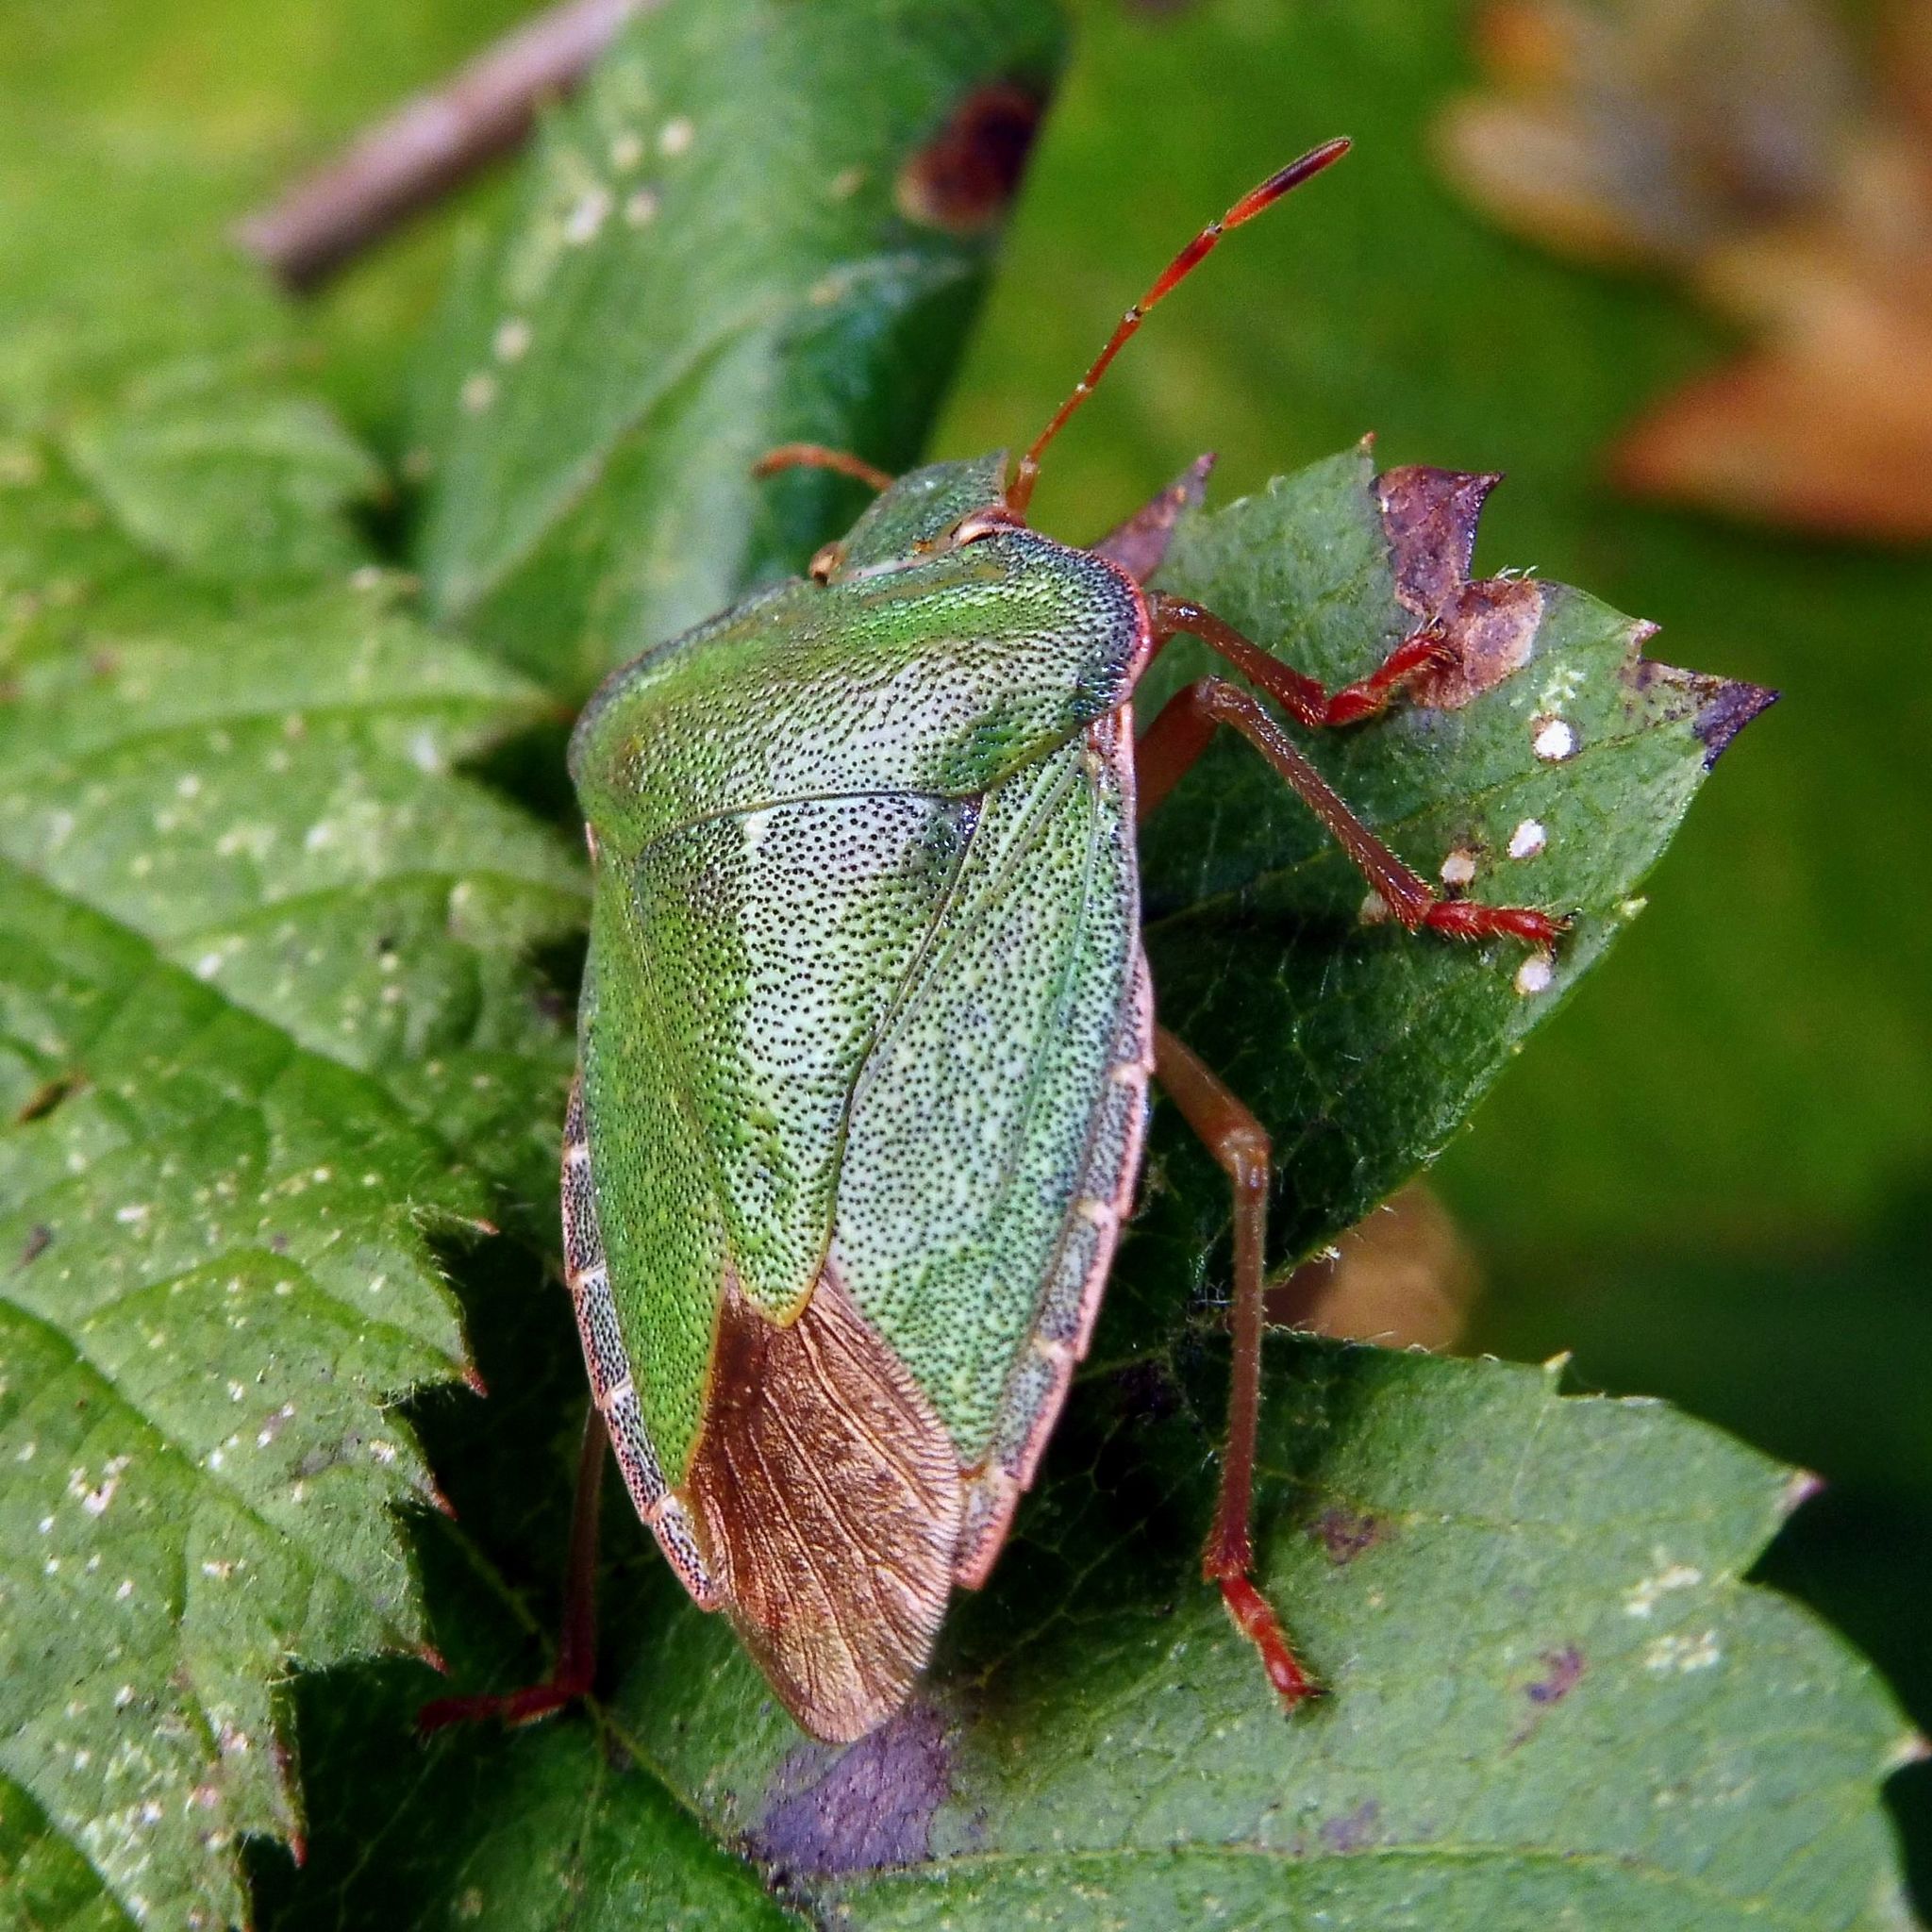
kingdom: Animalia
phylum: Arthropoda
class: Insecta
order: Hemiptera
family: Pentatomidae
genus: Palomena
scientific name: Palomena prasina
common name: Green shieldbug
